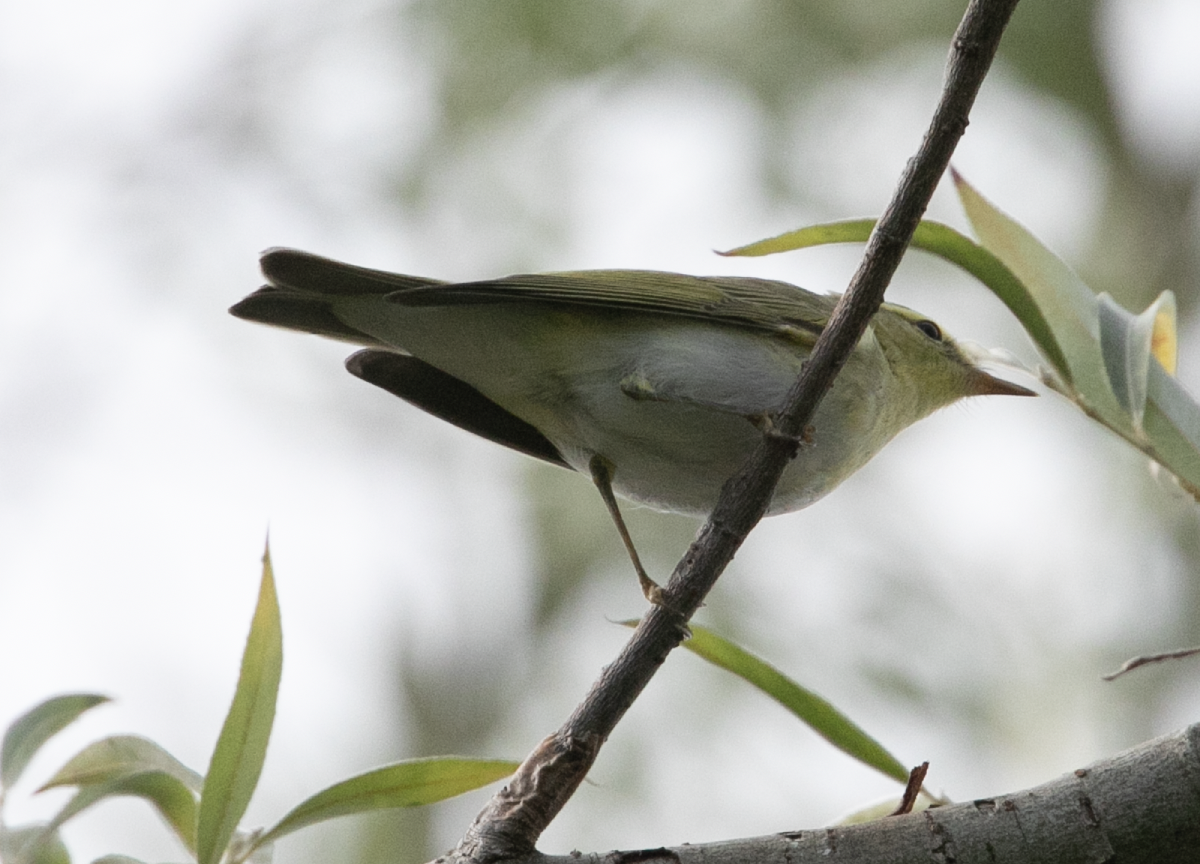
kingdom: Animalia
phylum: Chordata
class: Aves
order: Passeriformes
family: Phylloscopidae
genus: Phylloscopus
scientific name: Phylloscopus sibillatrix
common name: Wood warbler
